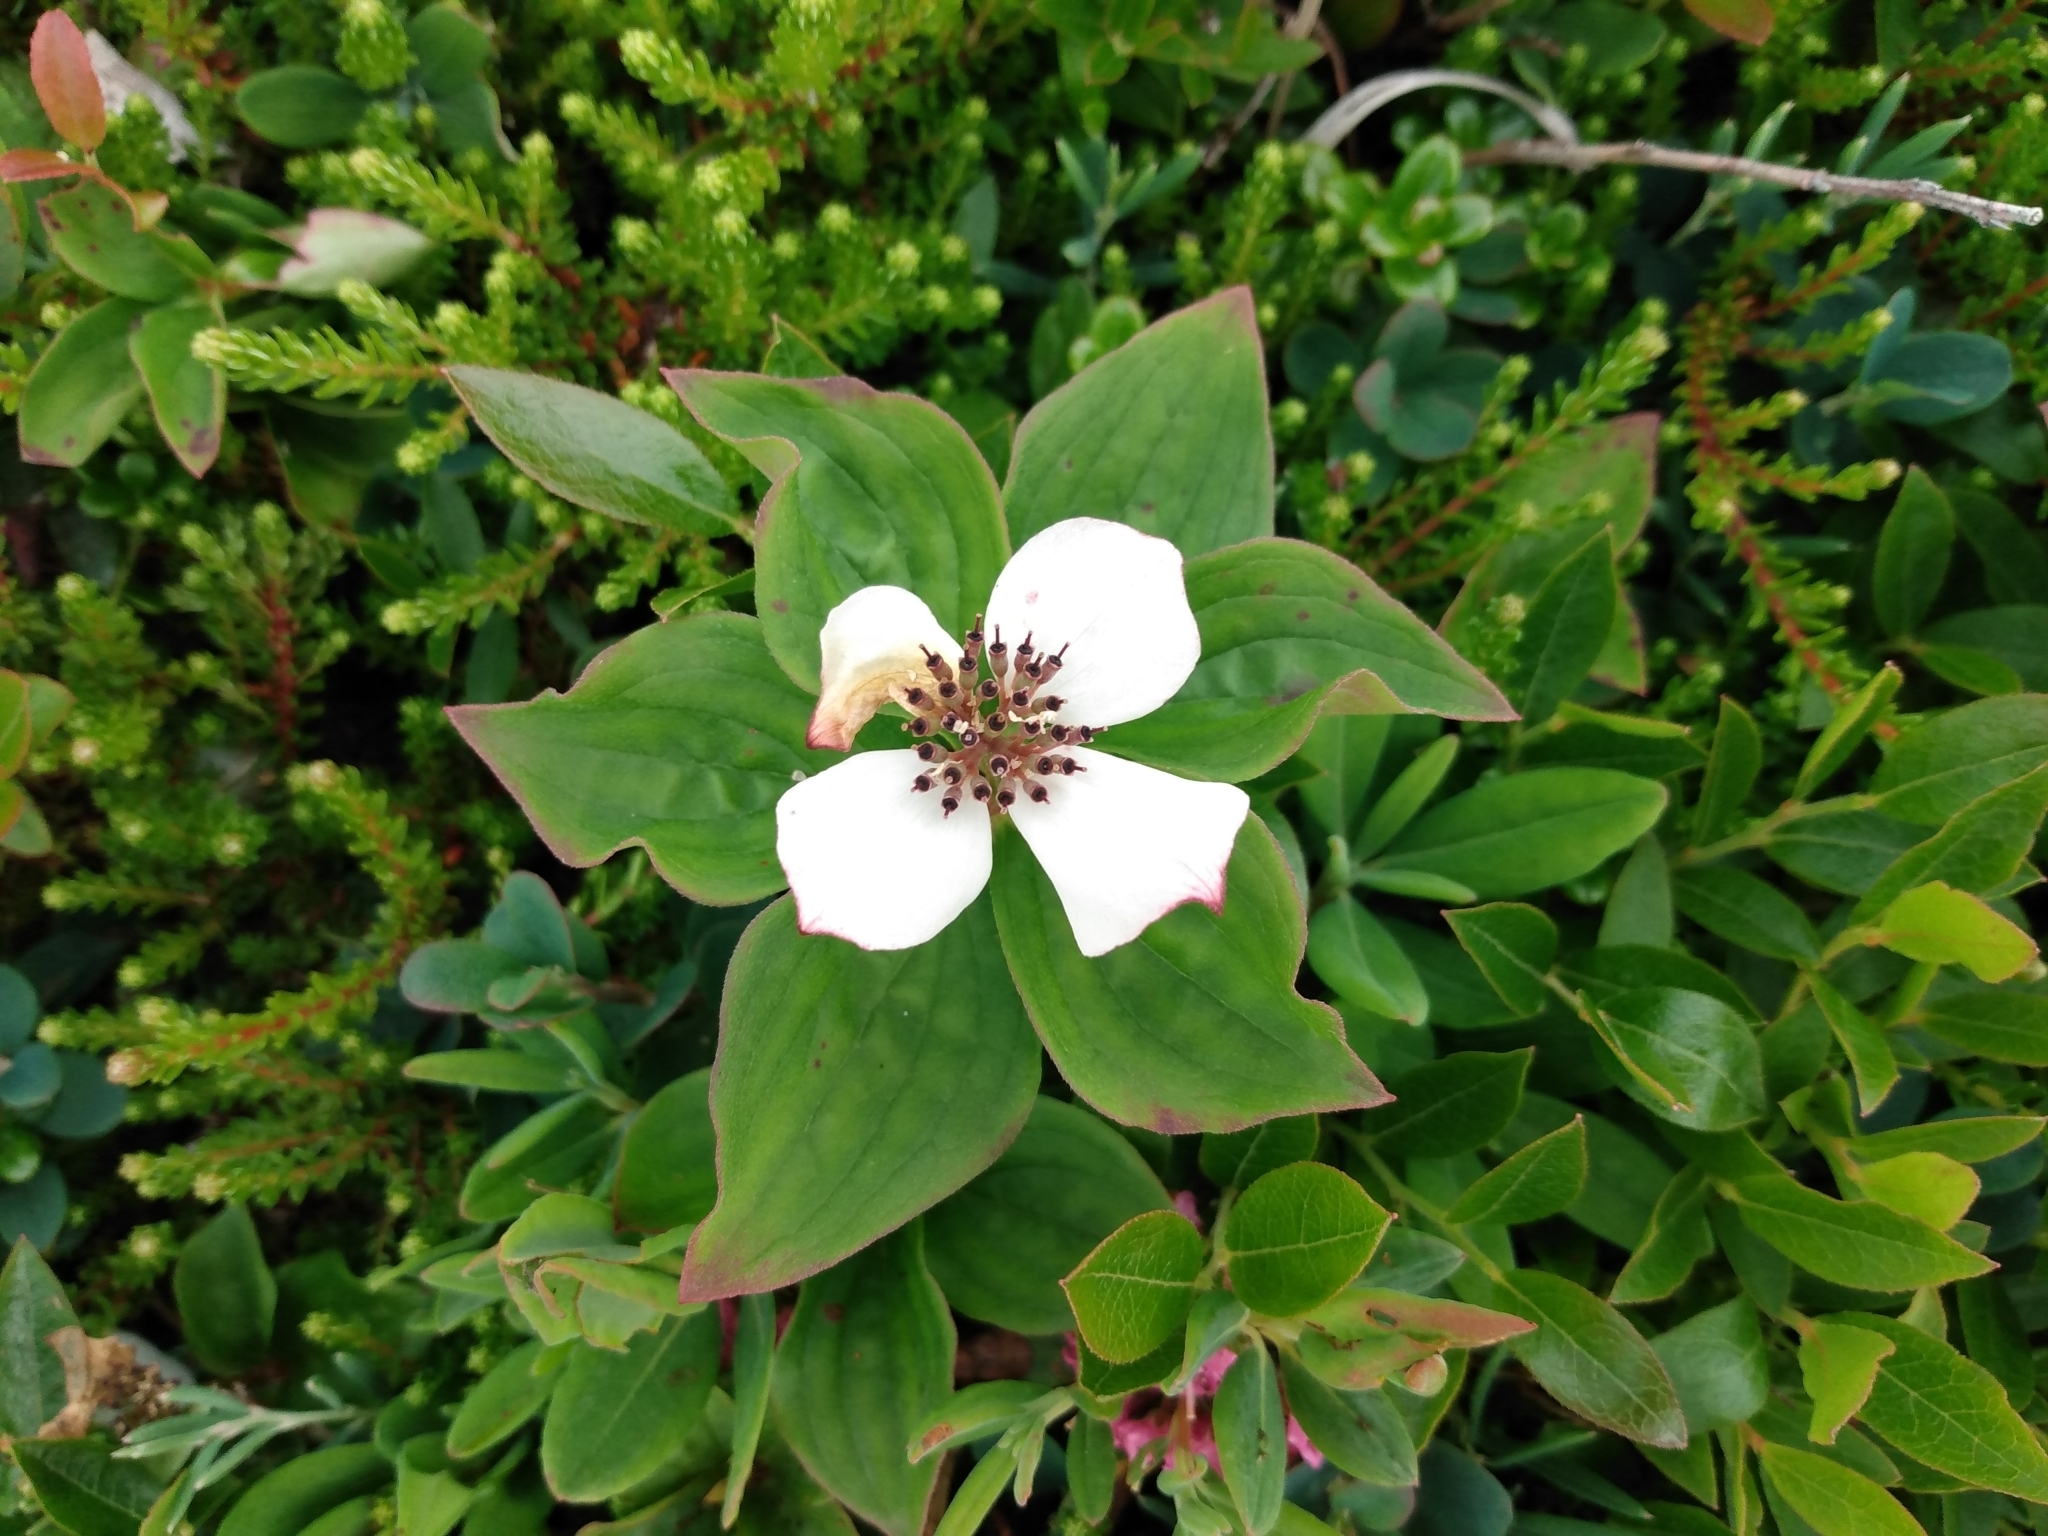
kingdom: Plantae
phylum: Tracheophyta
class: Magnoliopsida
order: Cornales
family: Cornaceae
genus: Cornus
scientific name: Cornus canadensis
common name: Creeping dogwood
